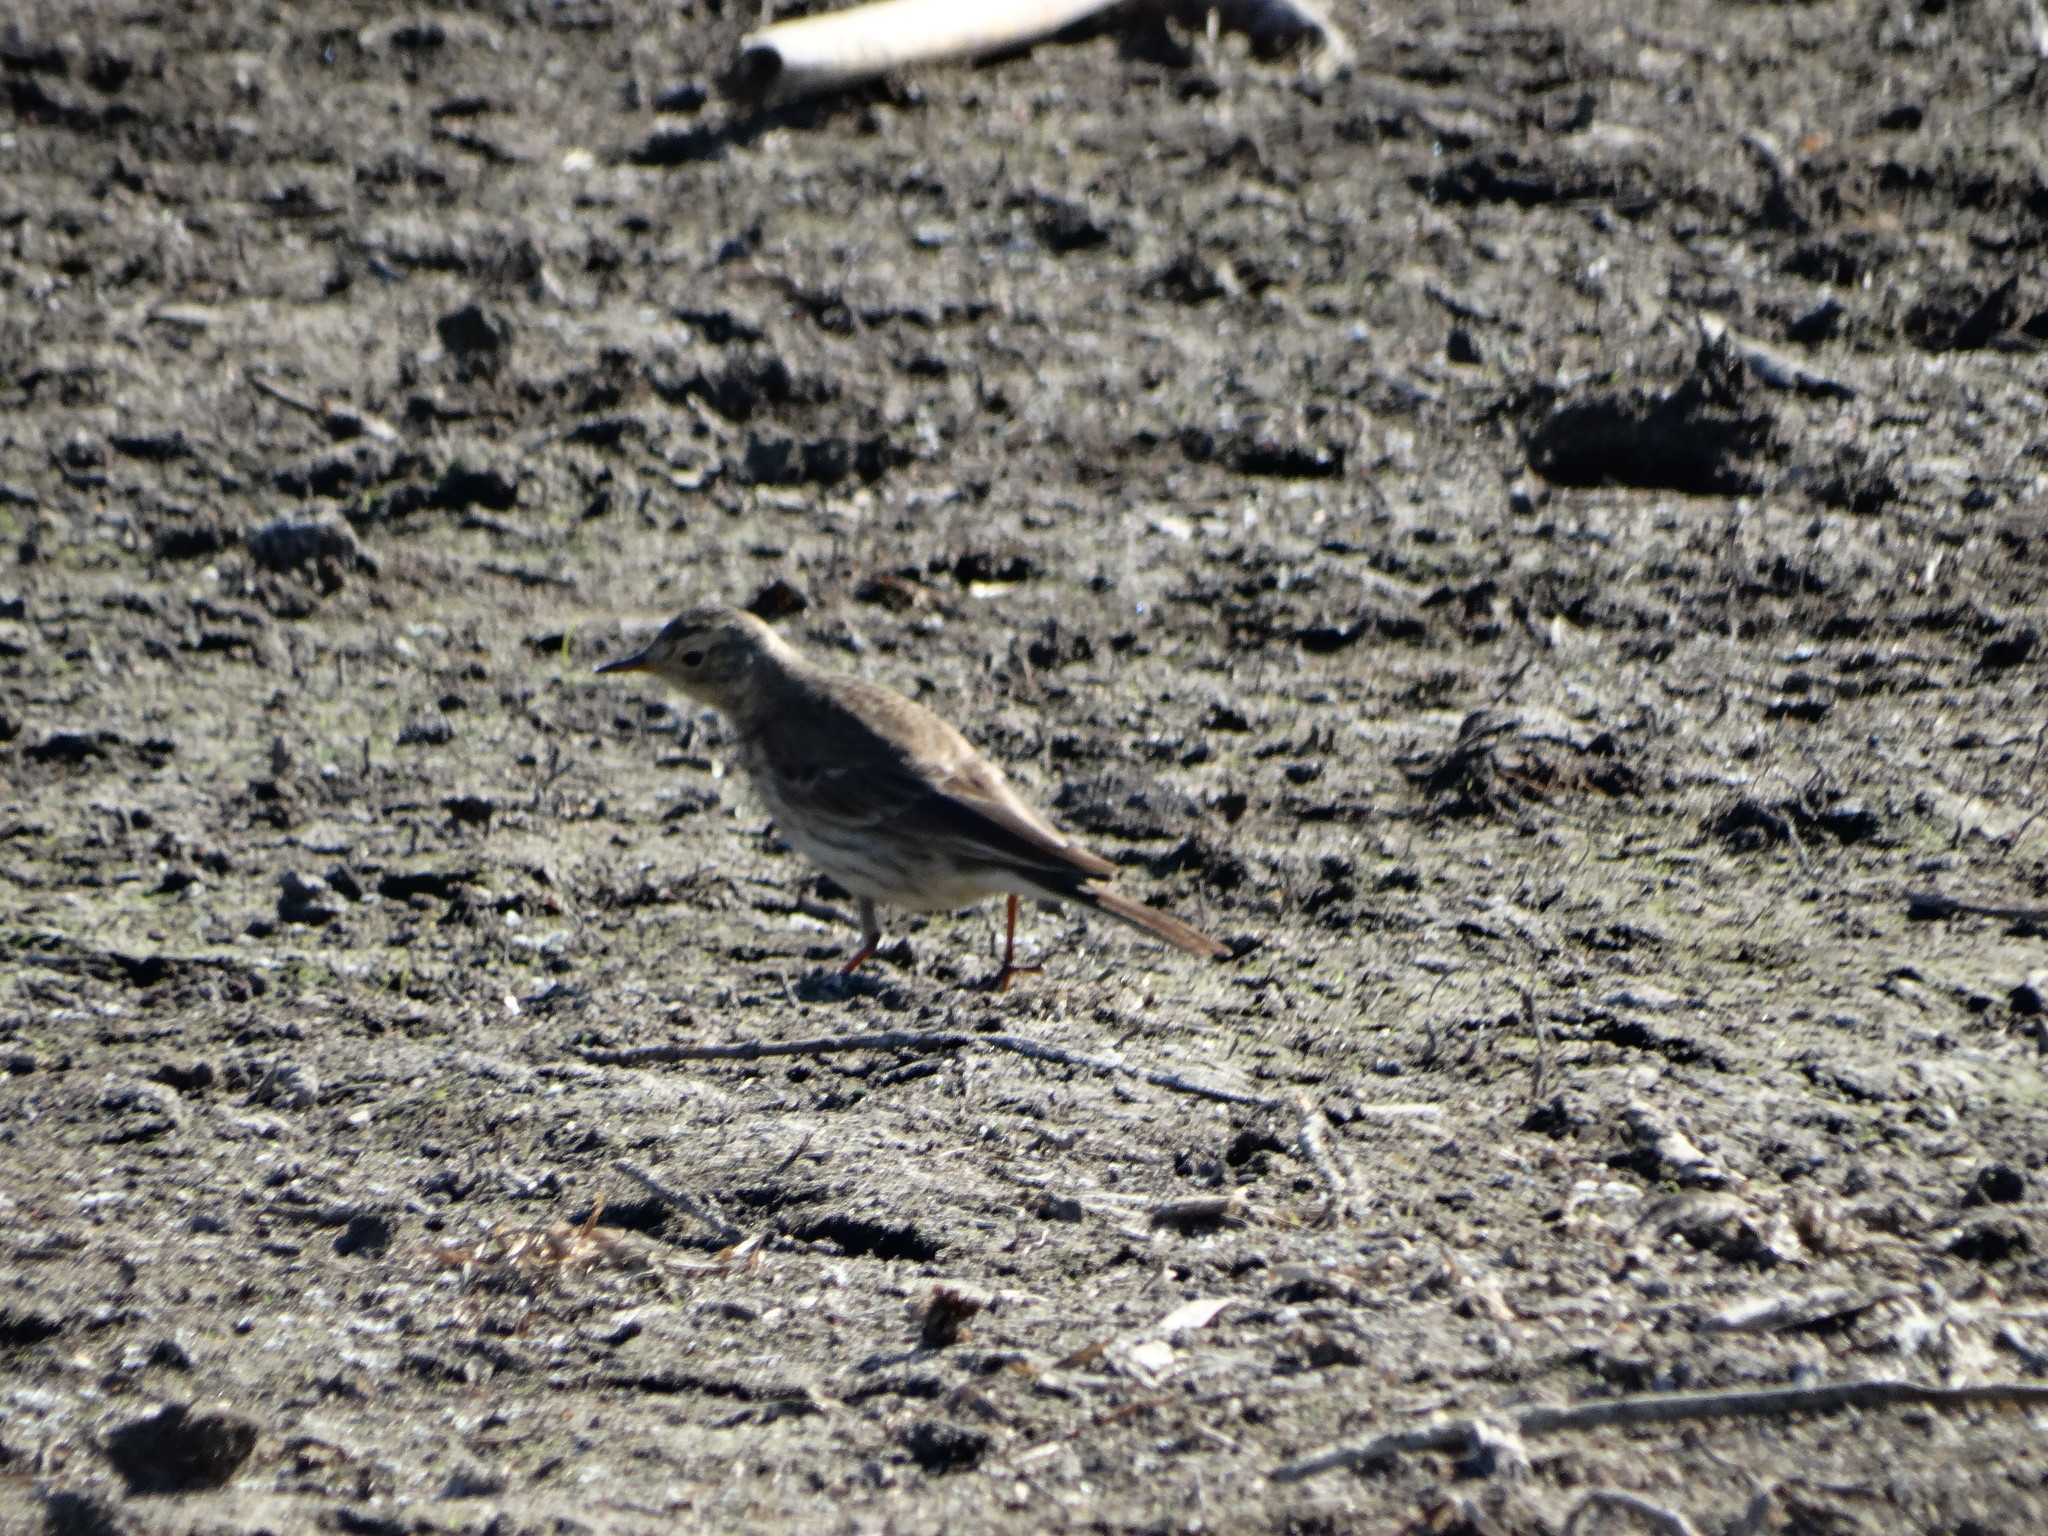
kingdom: Animalia
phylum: Chordata
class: Aves
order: Passeriformes
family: Motacillidae
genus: Anthus
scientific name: Anthus rubescens
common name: Buff-bellied pipit
